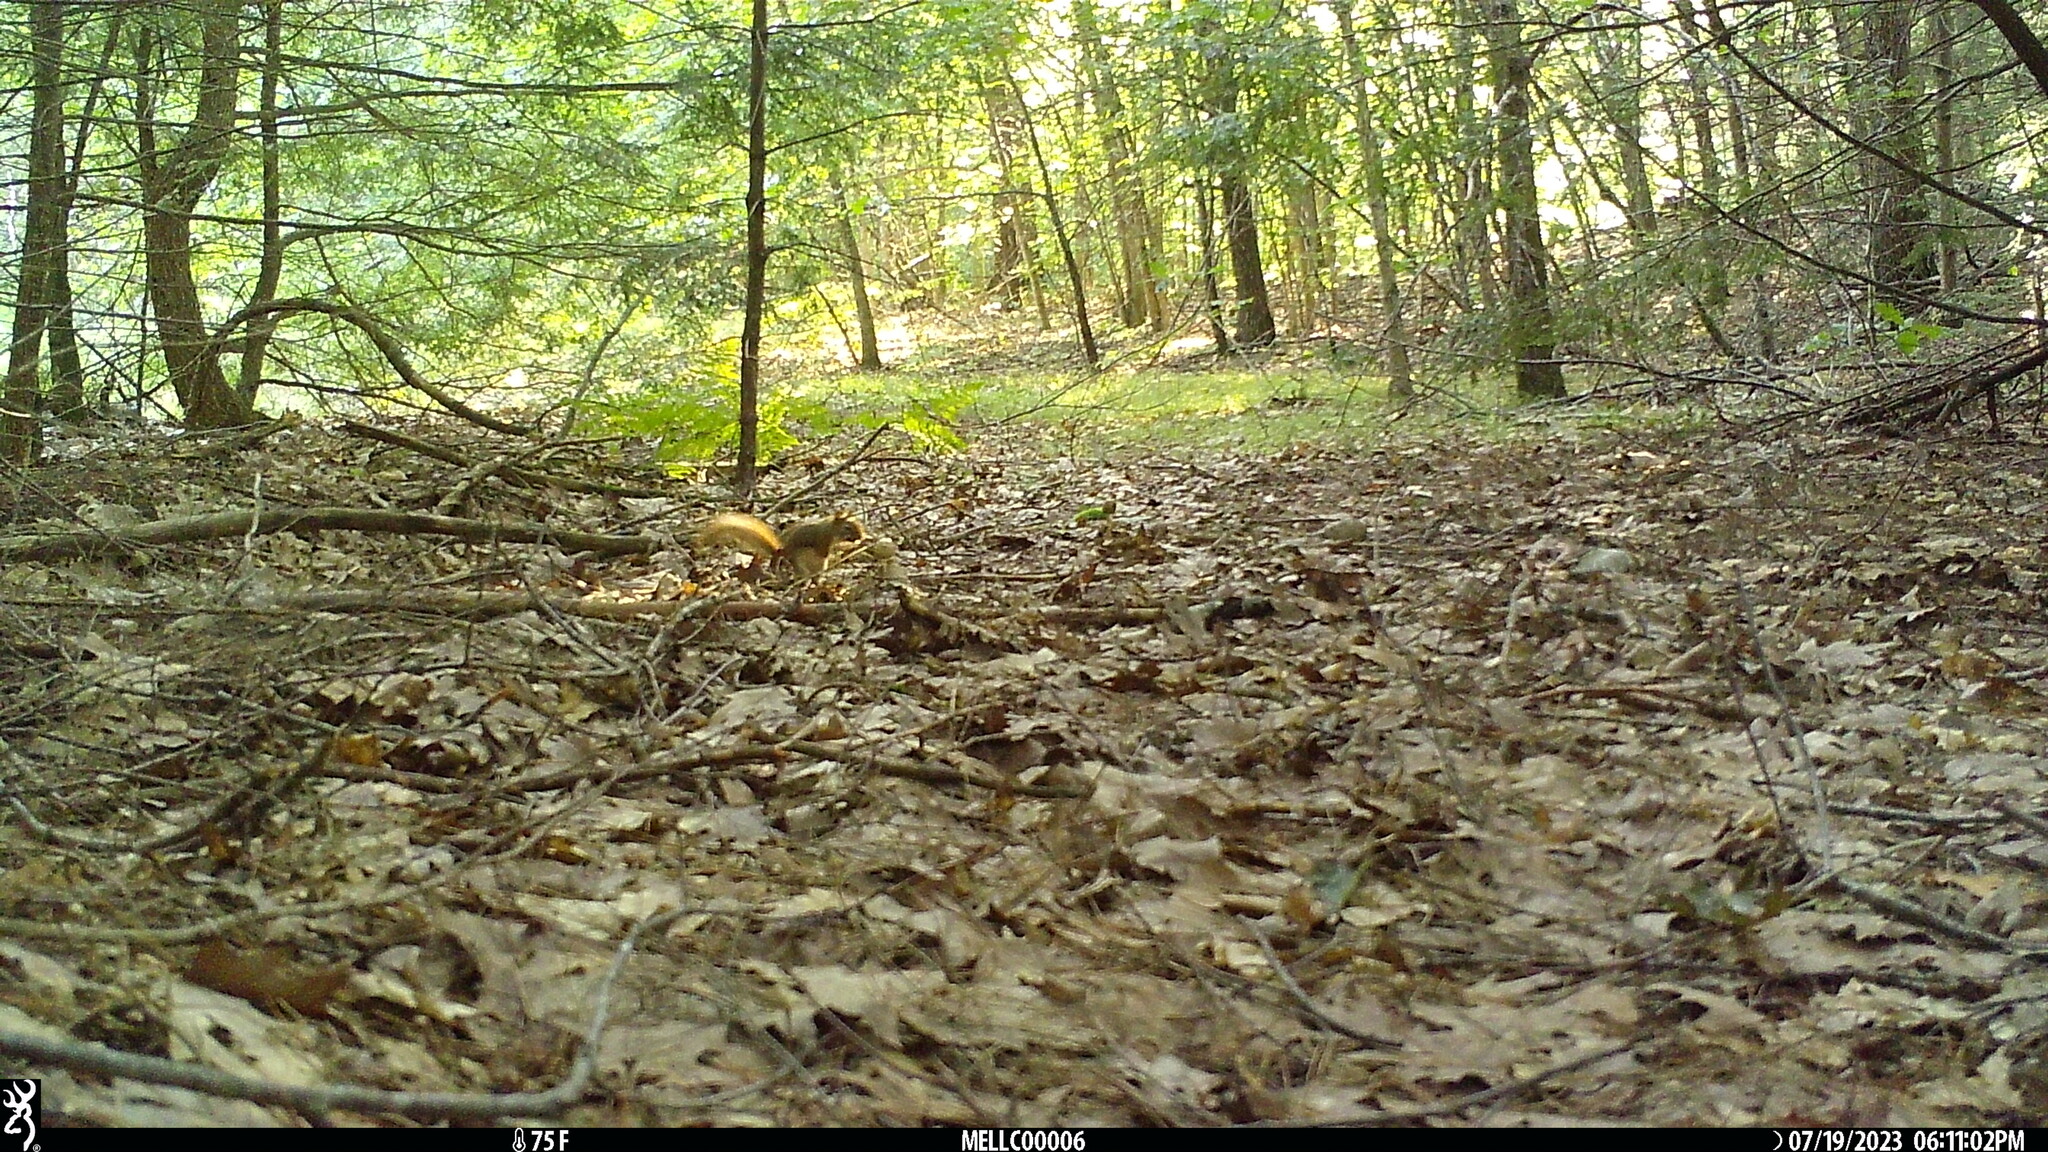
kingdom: Animalia
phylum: Chordata
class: Mammalia
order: Rodentia
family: Sciuridae
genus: Tamiasciurus
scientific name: Tamiasciurus hudsonicus
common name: Red squirrel
